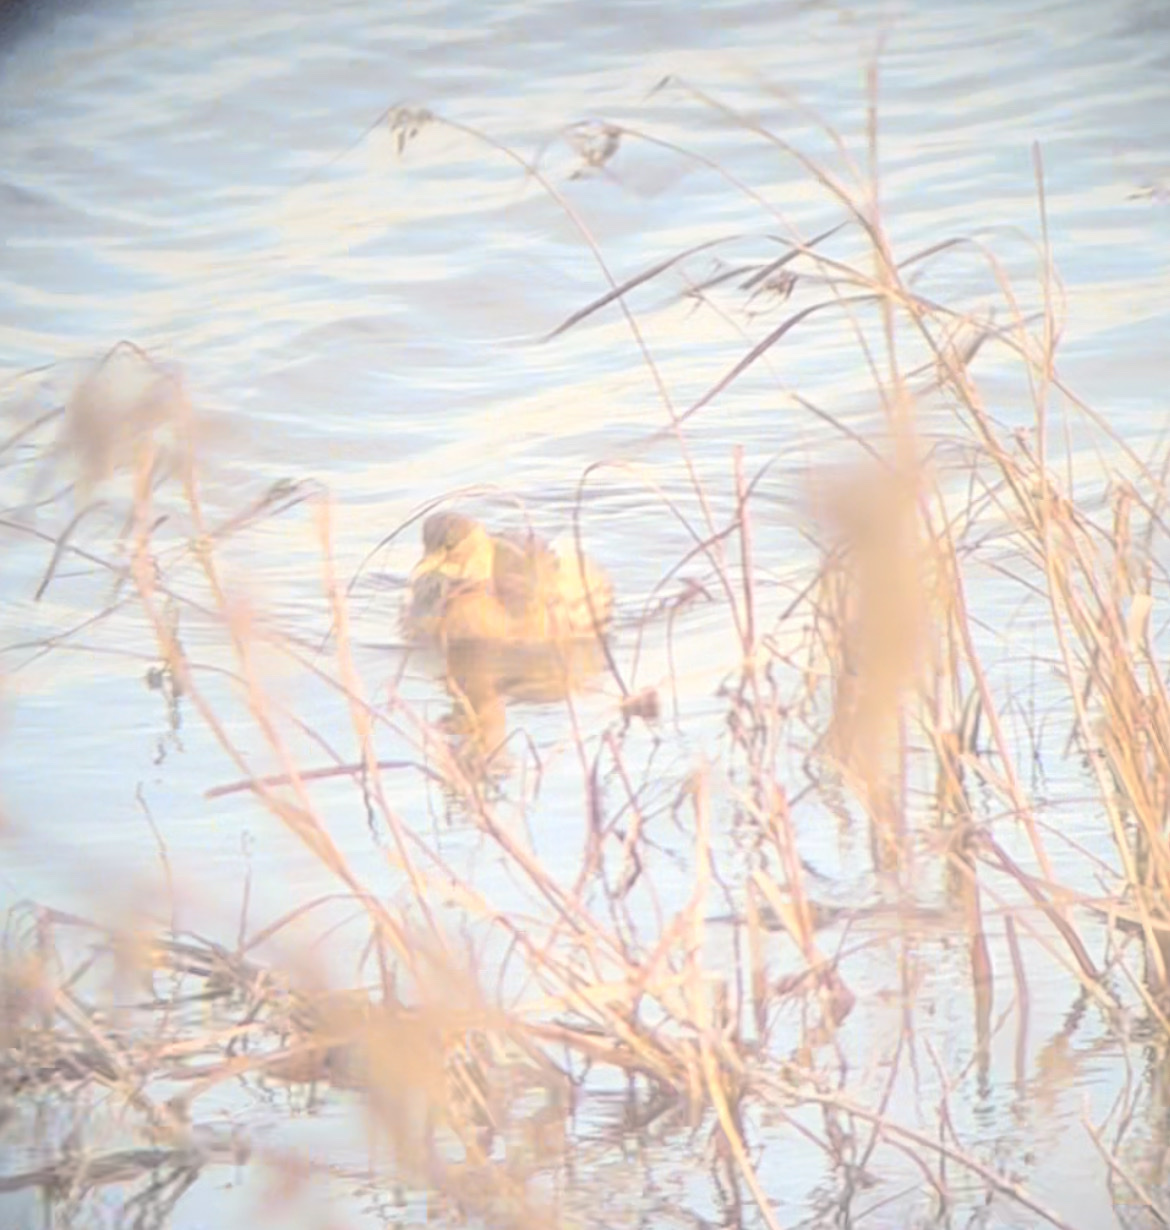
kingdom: Animalia
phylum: Chordata
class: Aves
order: Podicipediformes
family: Podicipedidae
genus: Tachybaptus
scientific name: Tachybaptus ruficollis
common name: Little grebe
